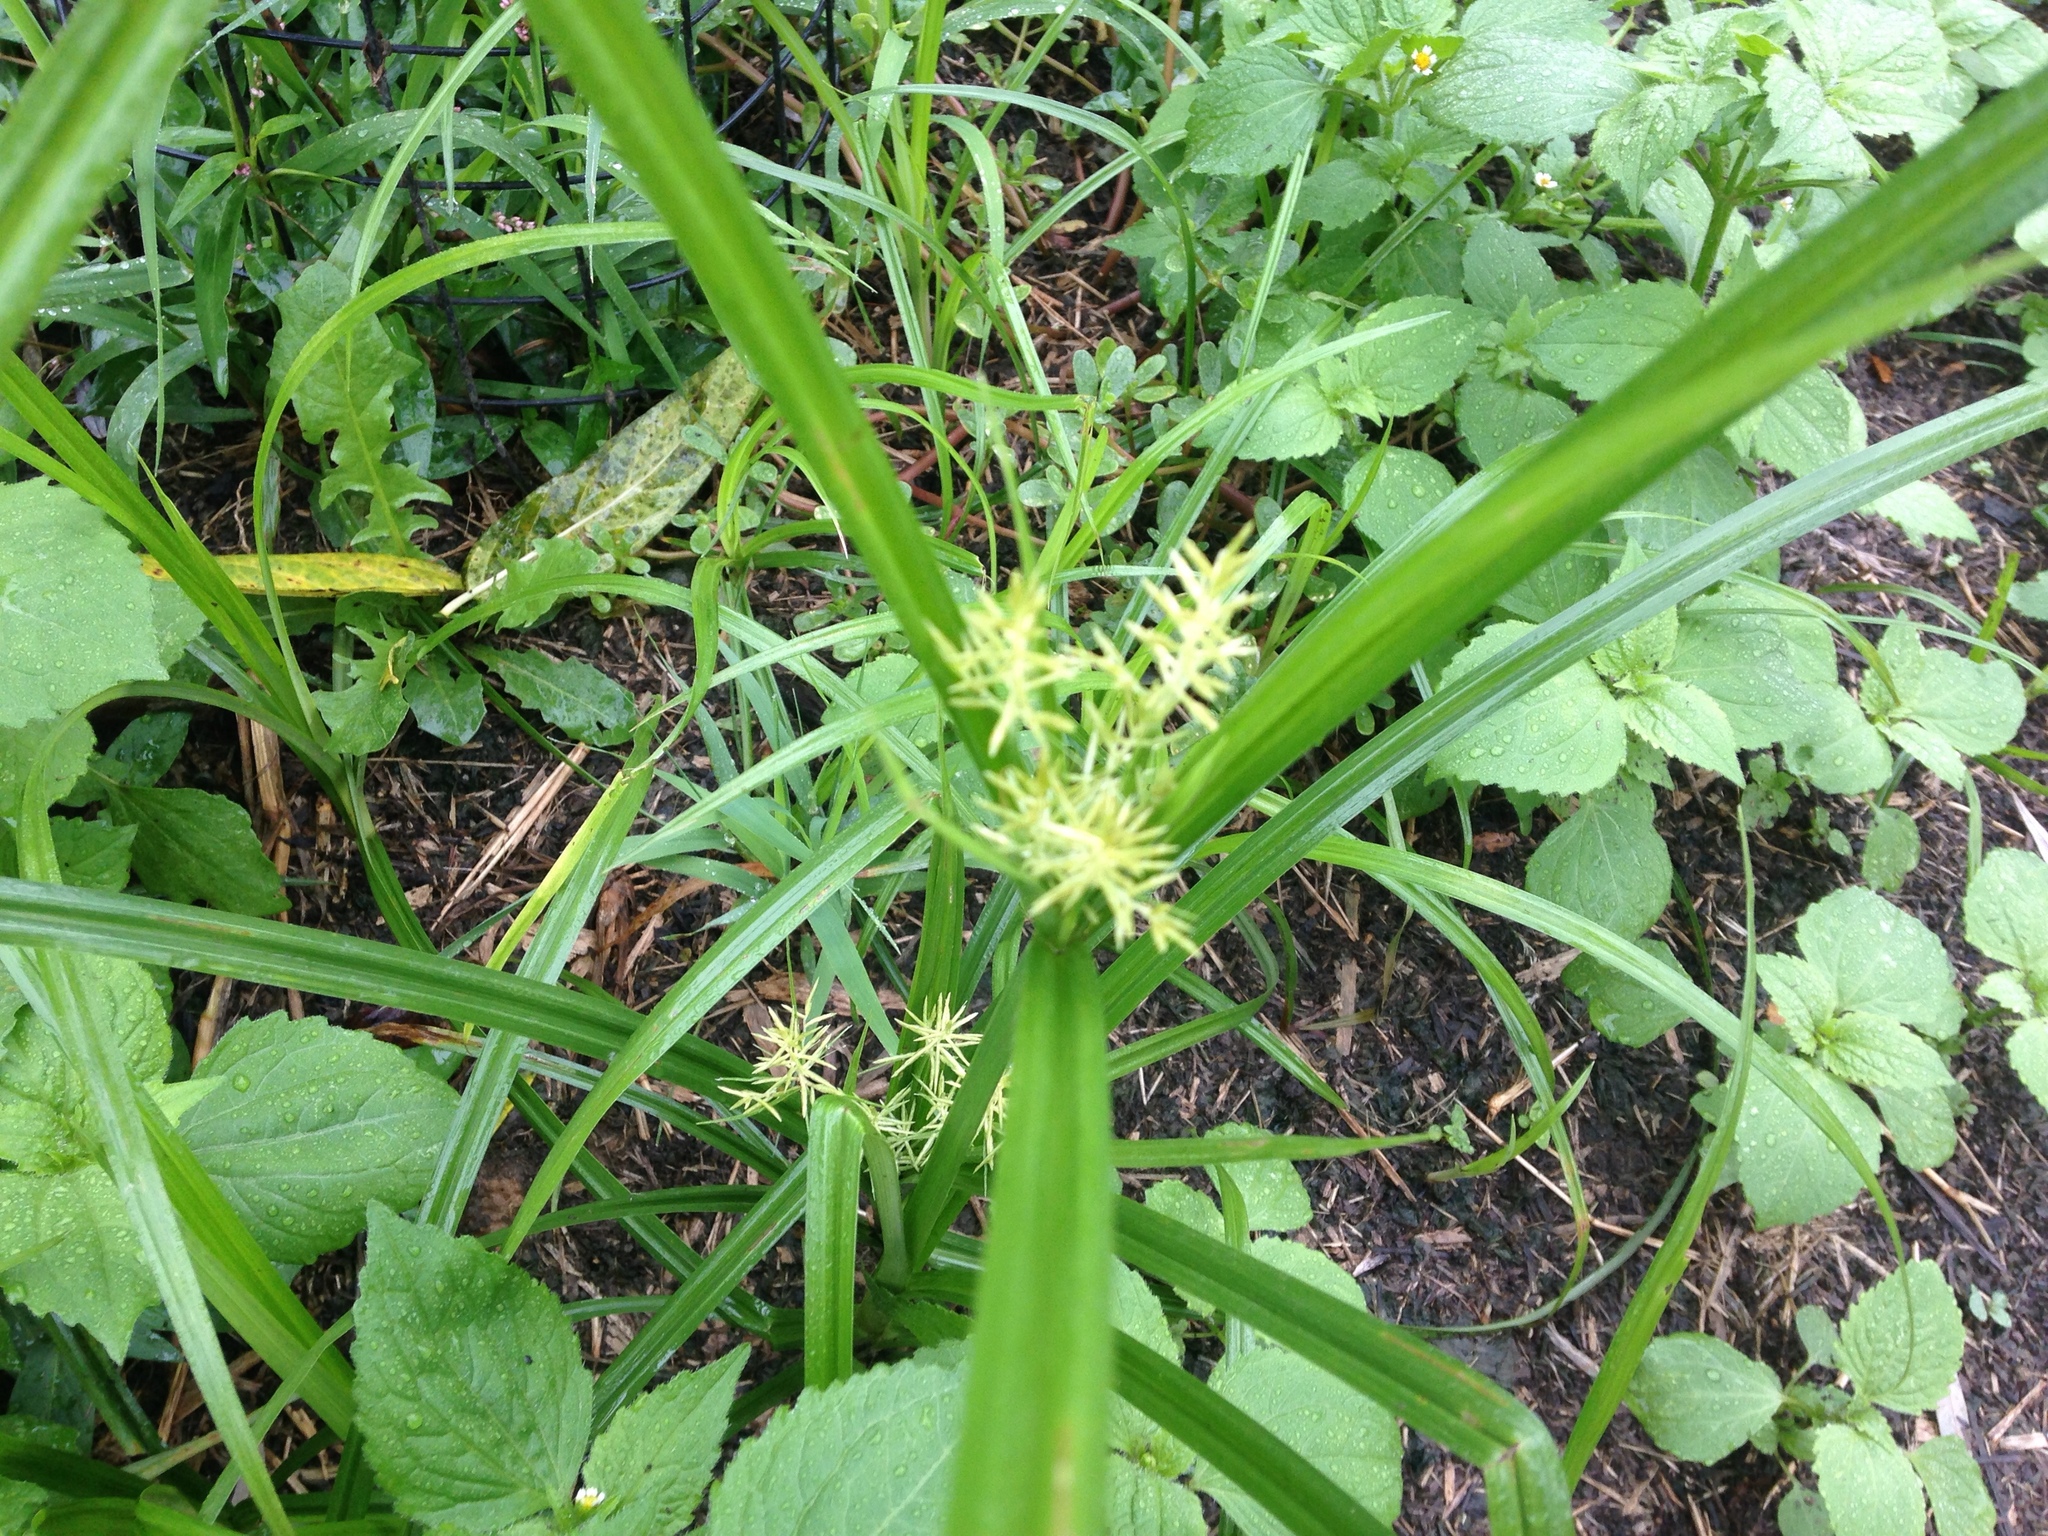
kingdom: Plantae
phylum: Tracheophyta
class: Liliopsida
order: Poales
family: Cyperaceae
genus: Cyperus
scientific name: Cyperus esculentus
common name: Yellow nutsedge
